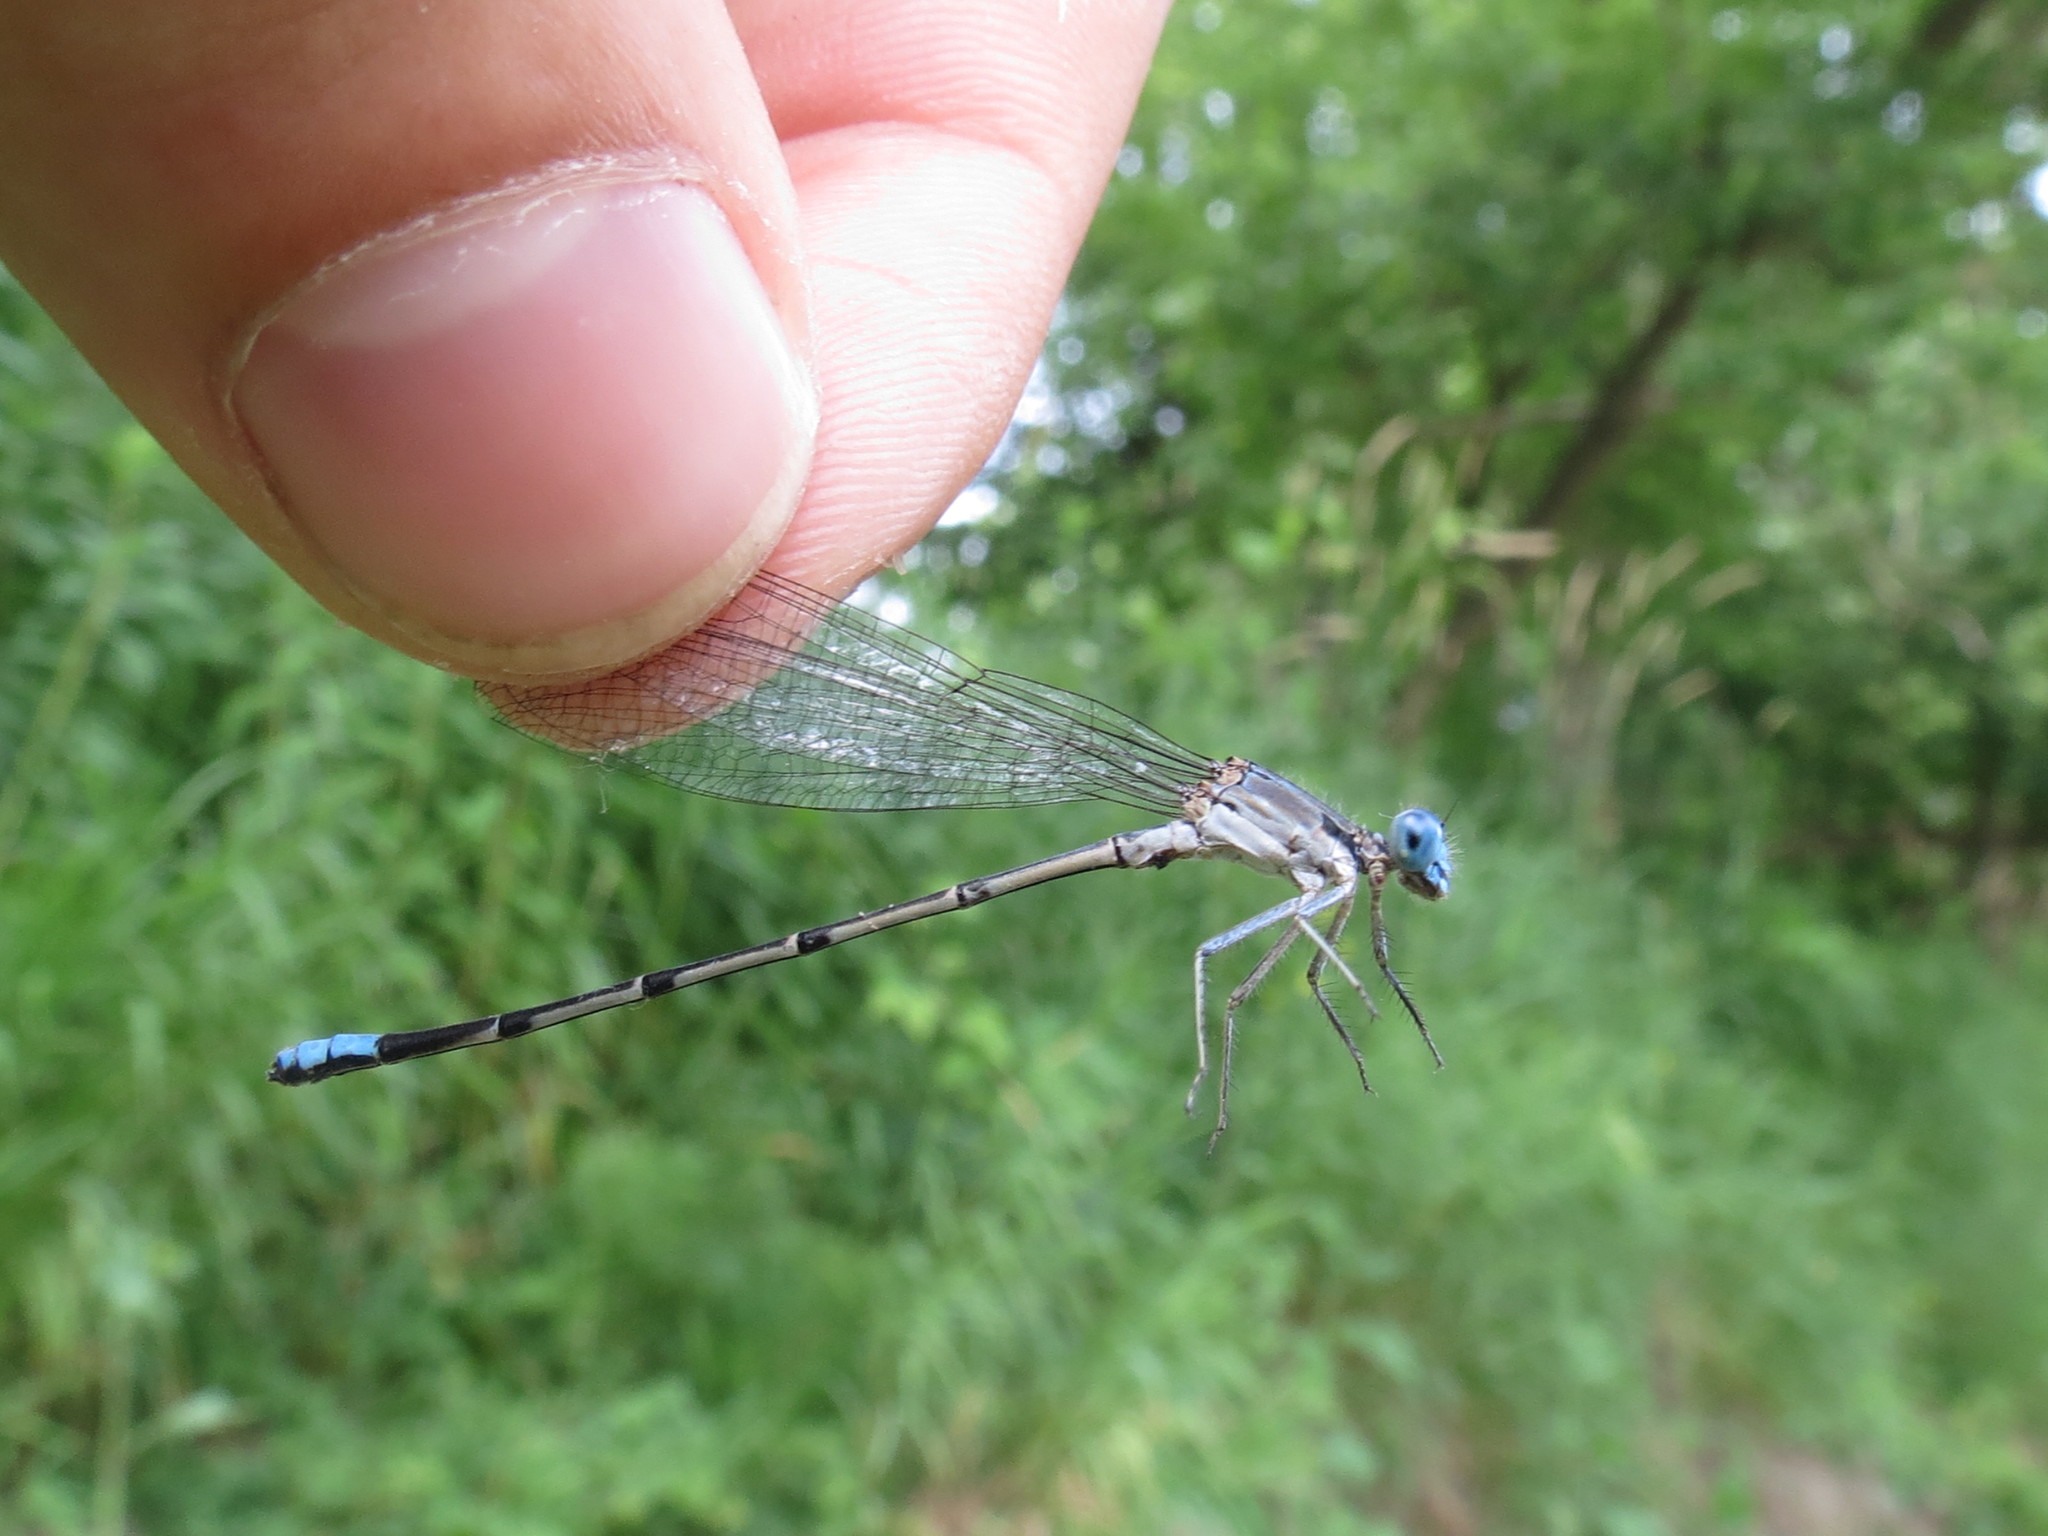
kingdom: Animalia
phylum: Arthropoda
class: Insecta
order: Odonata
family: Coenagrionidae
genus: Argia
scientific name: Argia apicalis
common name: Blue-fronted dancer
